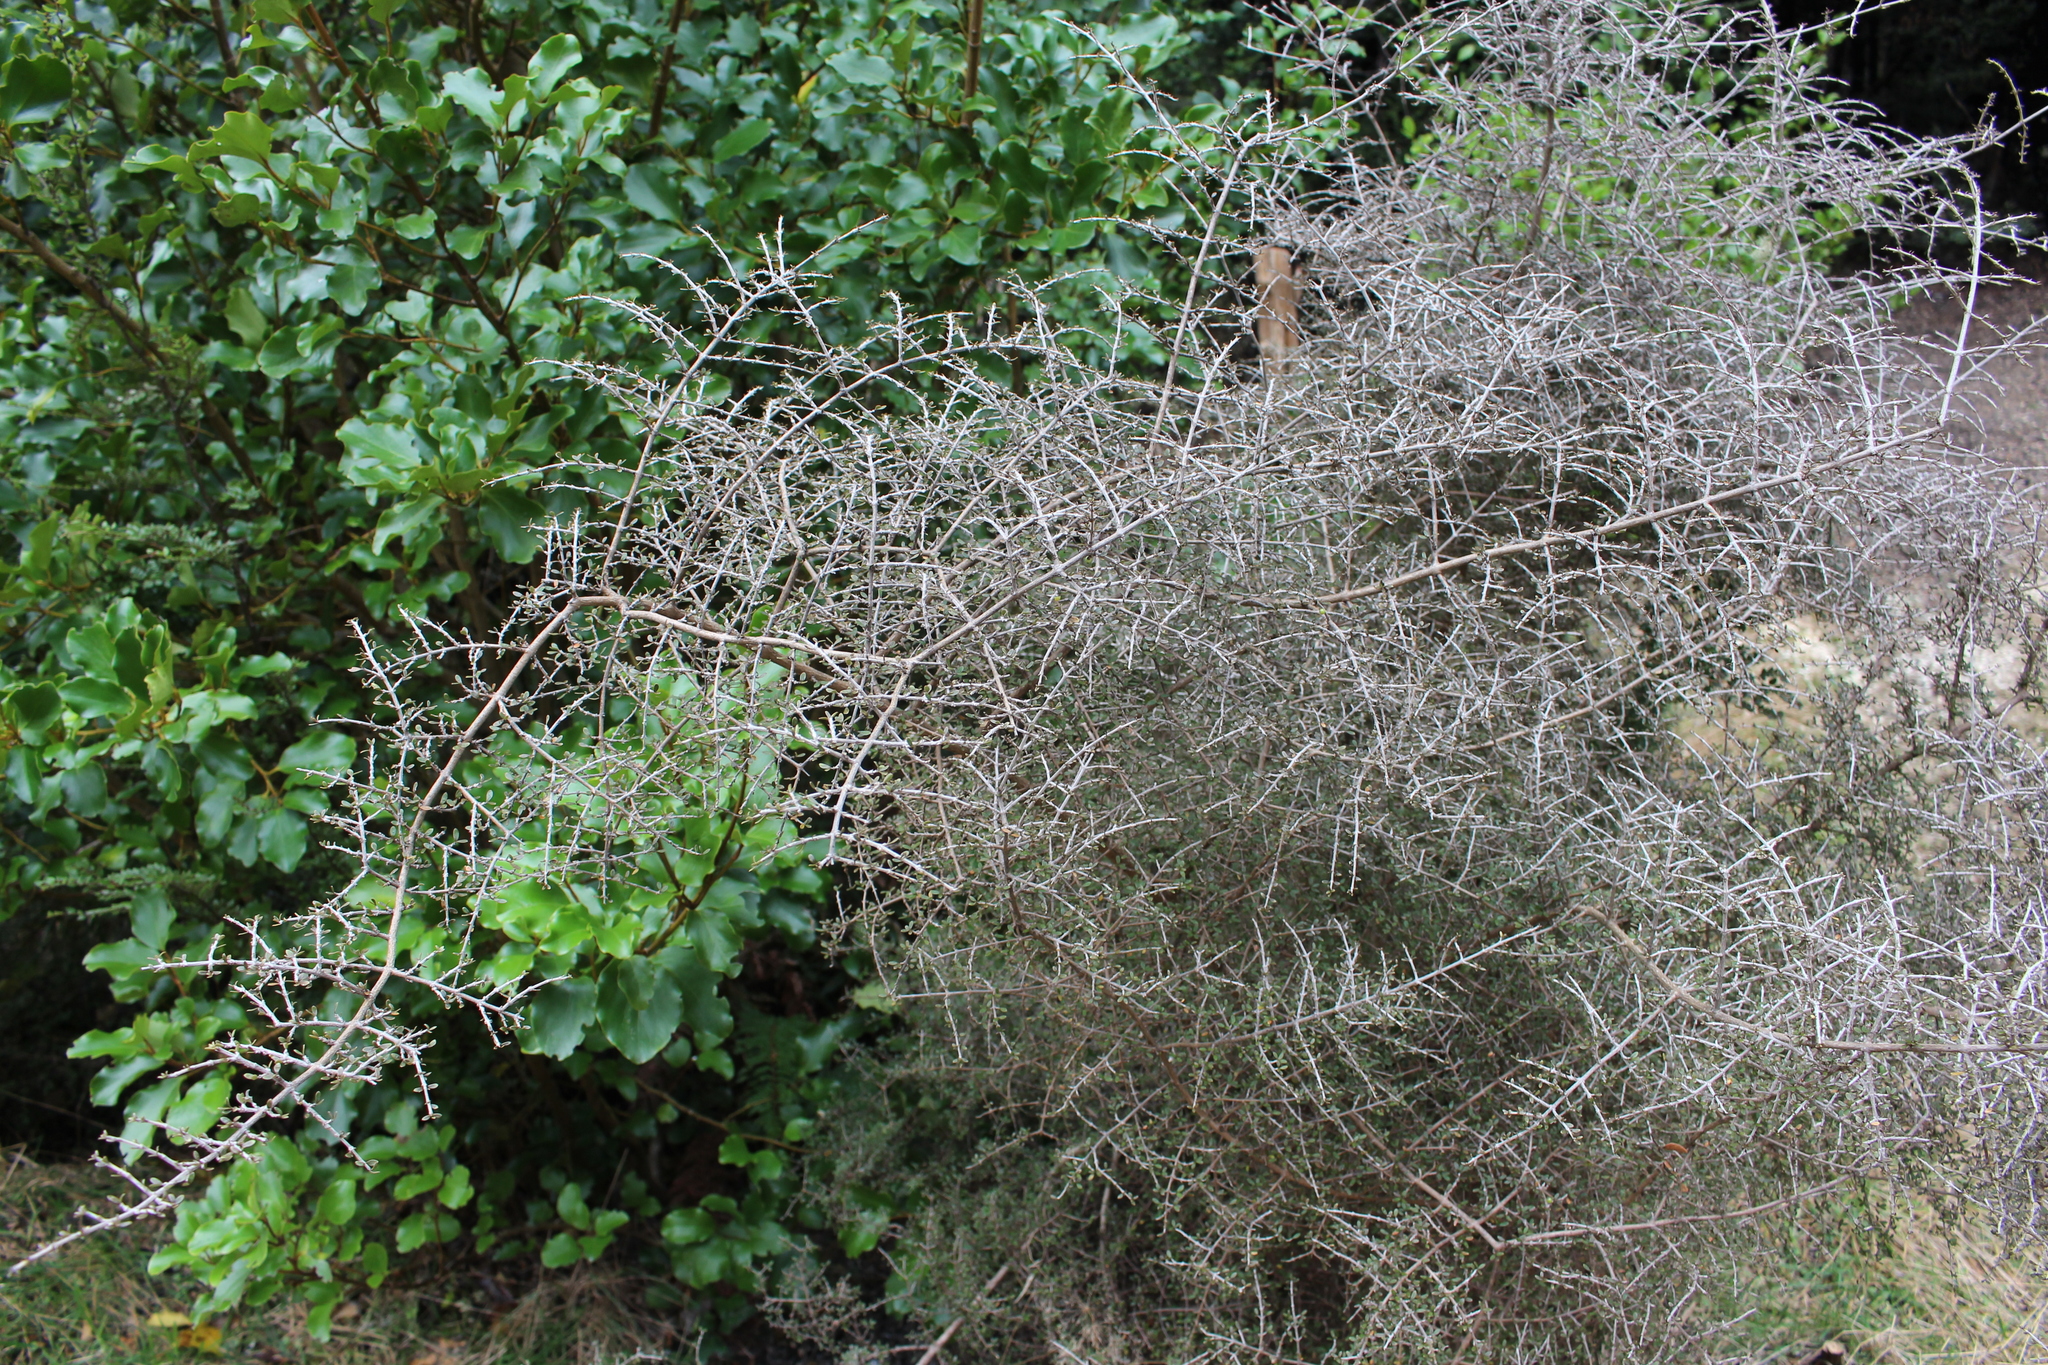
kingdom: Plantae
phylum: Tracheophyta
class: Magnoliopsida
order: Gentianales
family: Rubiaceae
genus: Coprosma
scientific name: Coprosma dumosa
